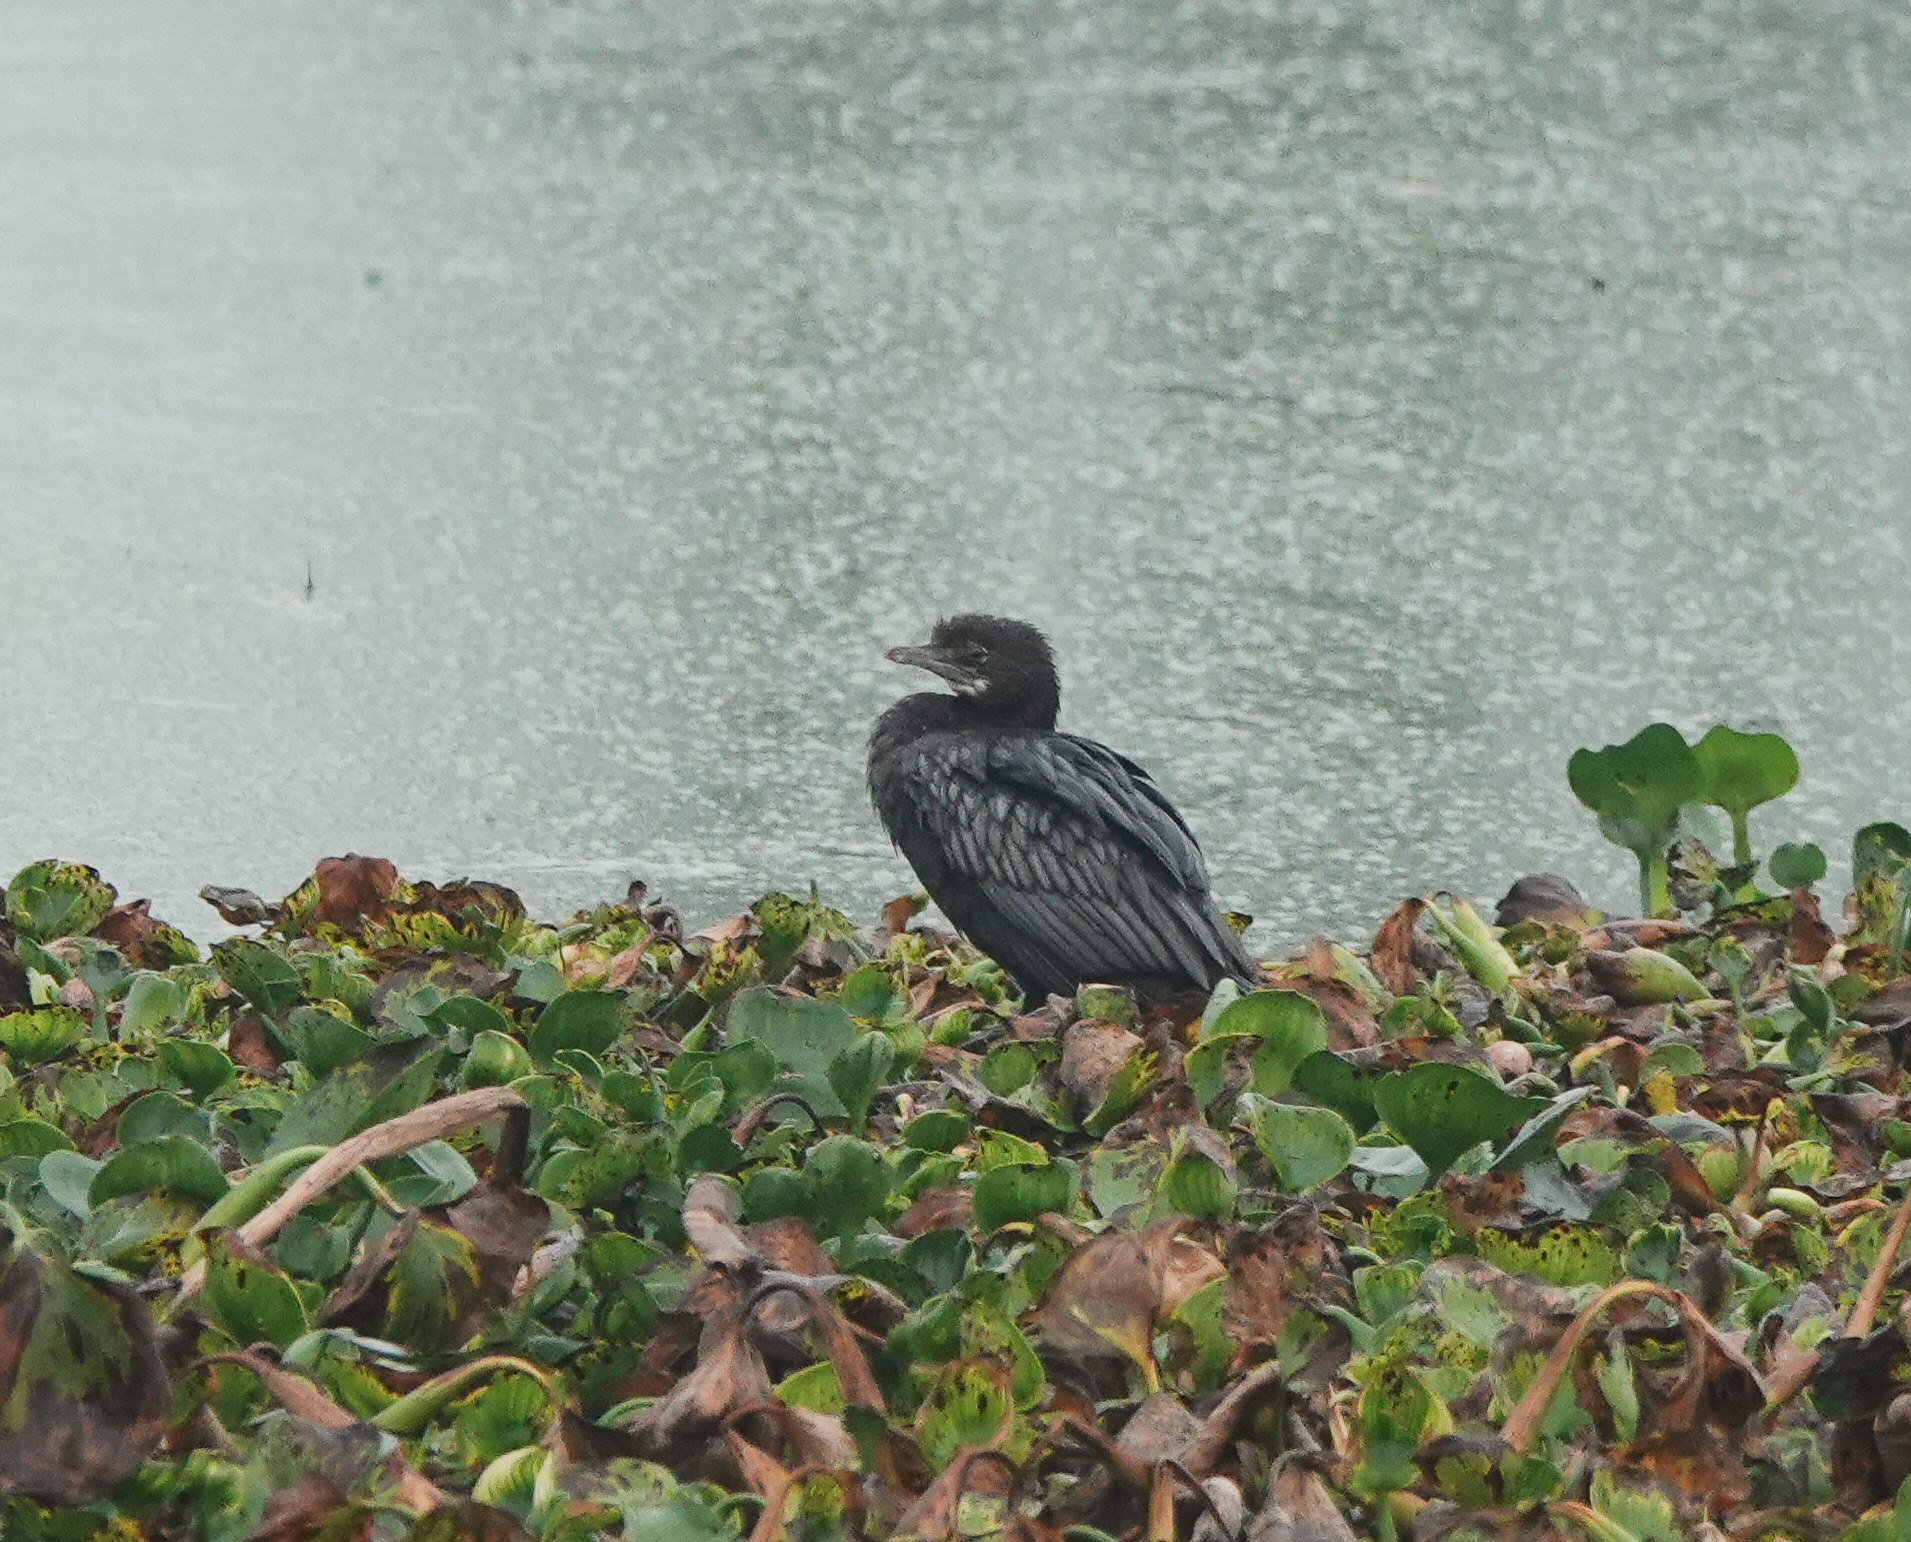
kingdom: Animalia
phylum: Chordata
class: Aves
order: Suliformes
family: Phalacrocoracidae
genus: Phalacrocorax
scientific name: Phalacrocorax fuscicollis
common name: Indian cormorant
